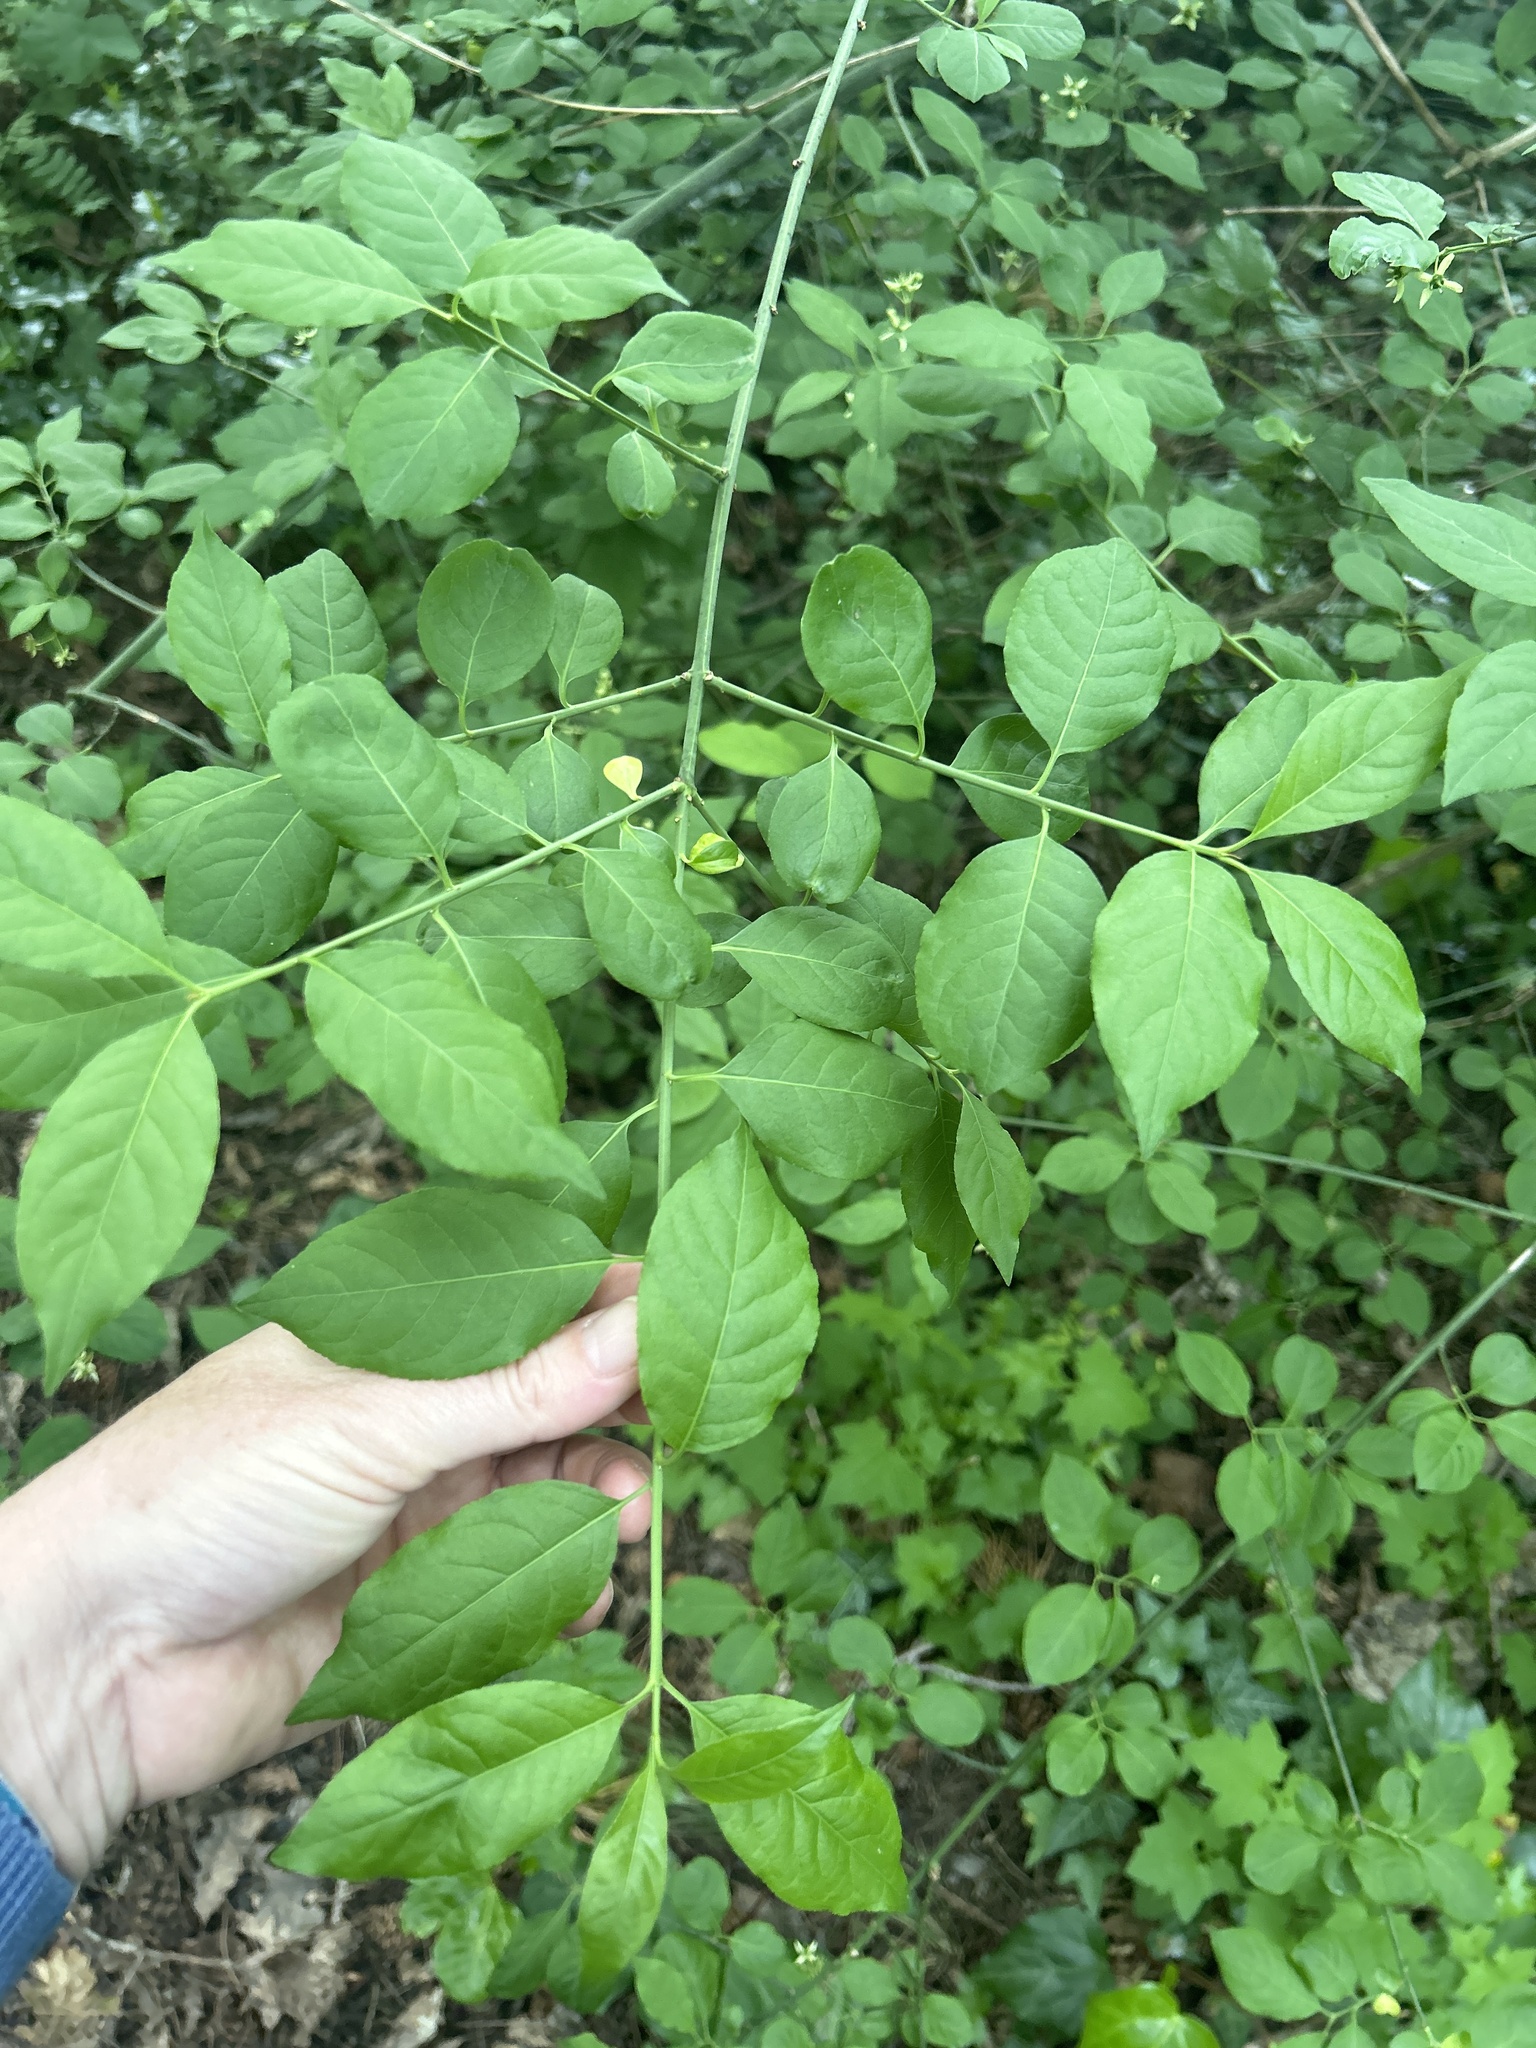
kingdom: Plantae
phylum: Tracheophyta
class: Magnoliopsida
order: Celastrales
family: Celastraceae
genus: Euonymus
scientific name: Euonymus europaeus
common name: Spindle
